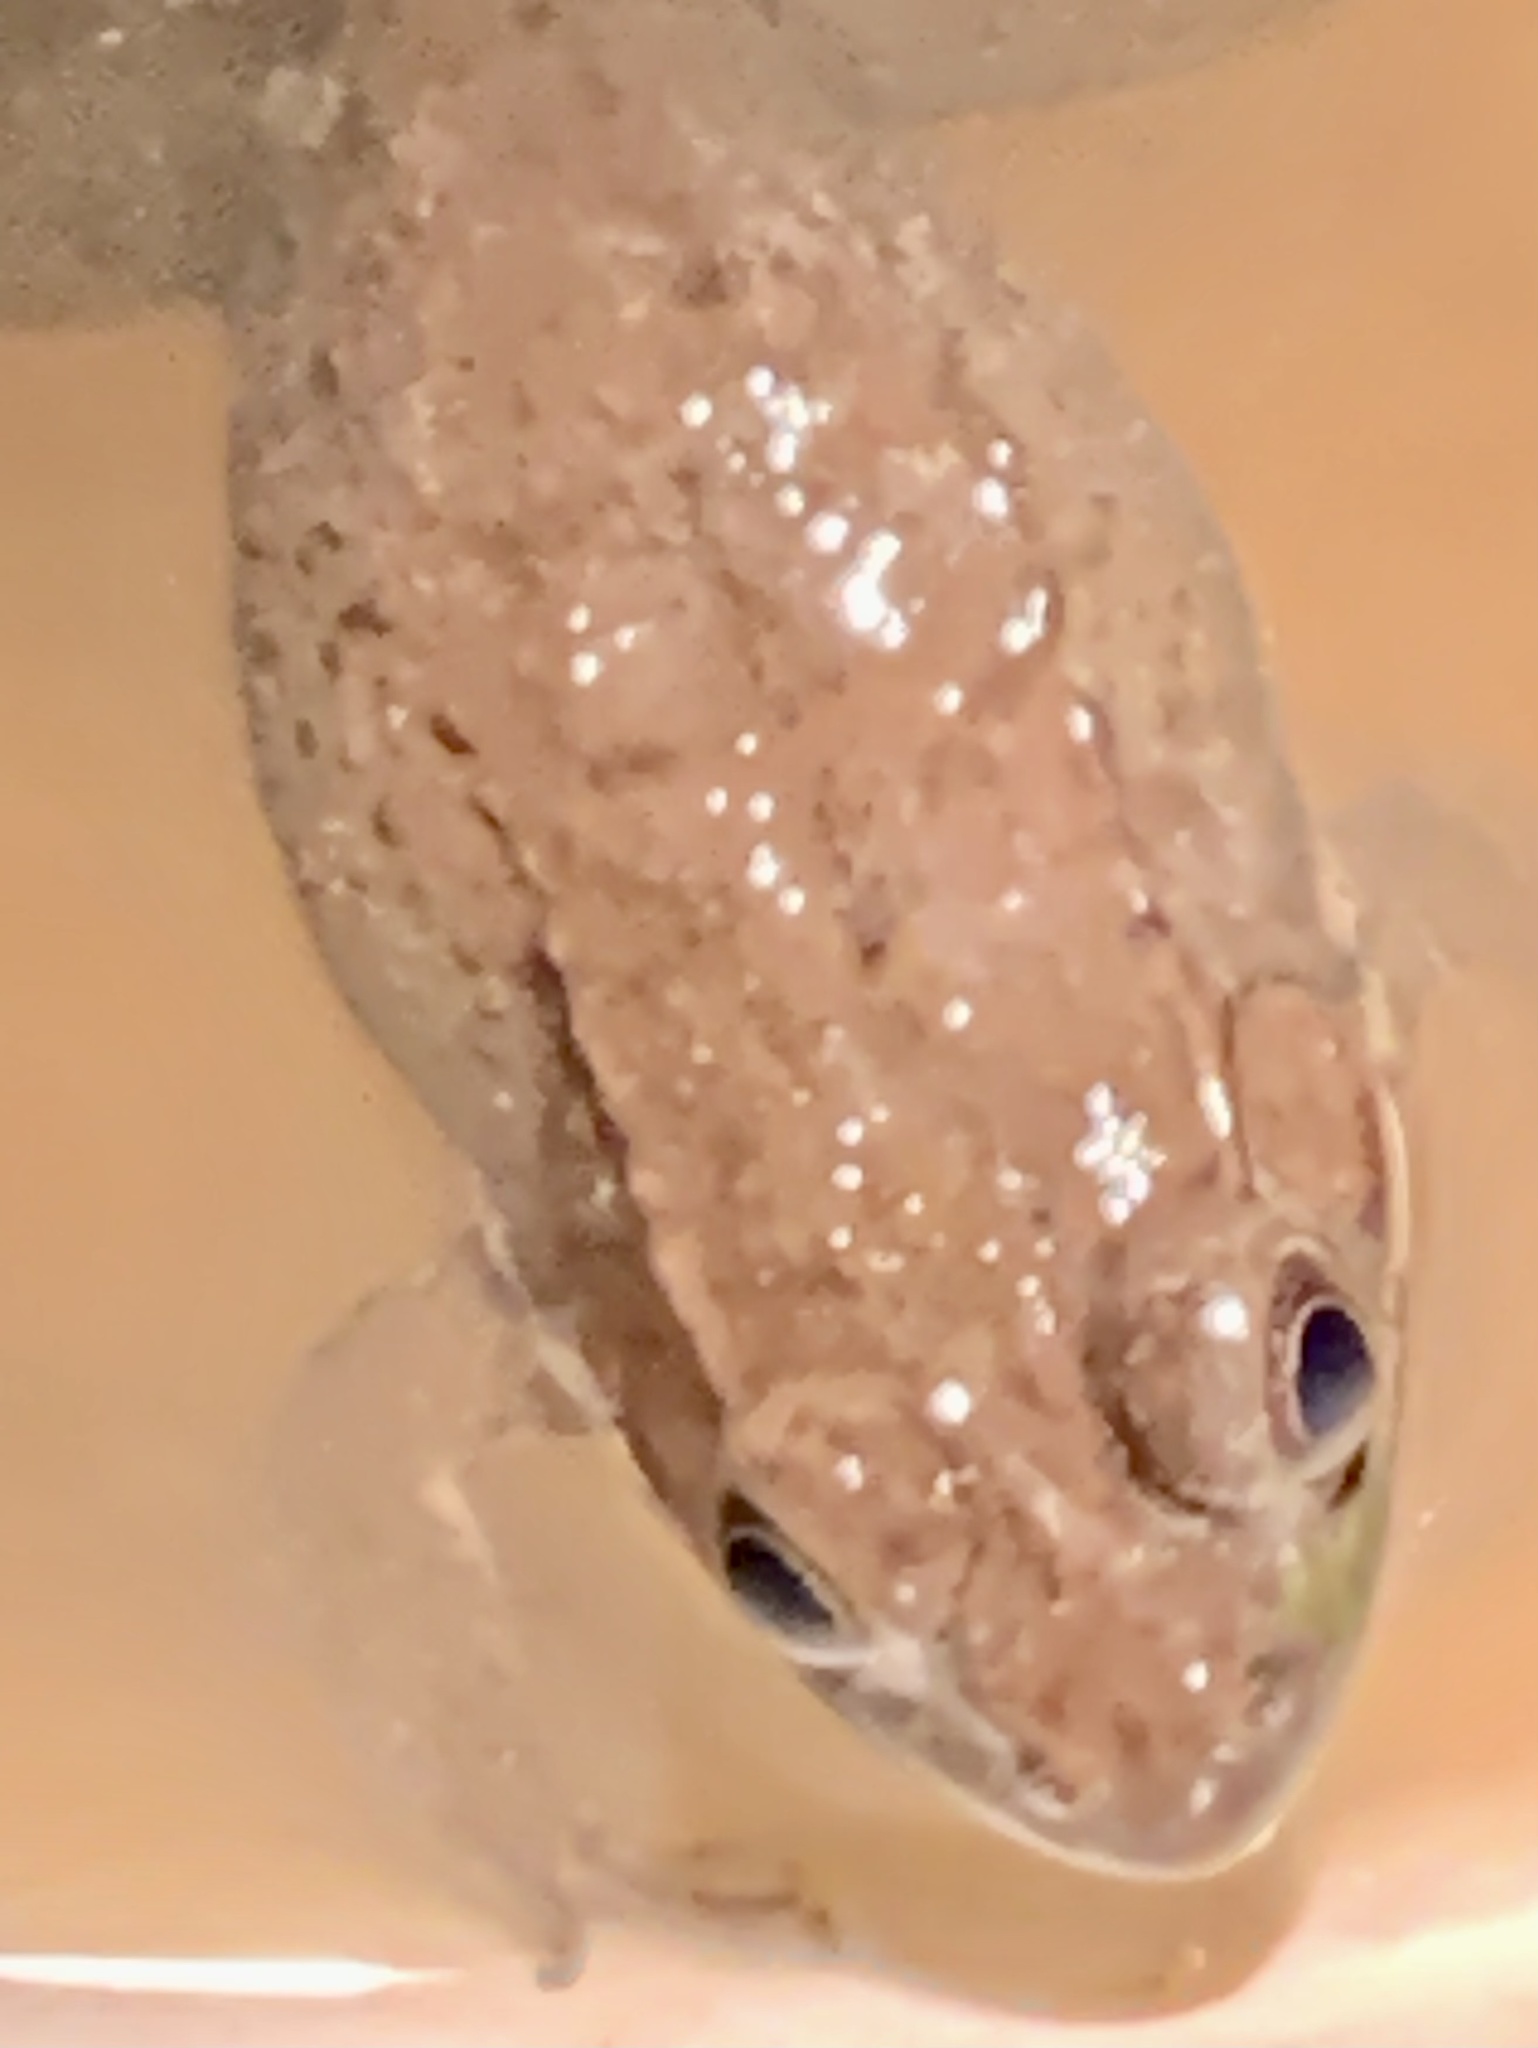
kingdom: Animalia
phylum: Chordata
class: Amphibia
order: Anura
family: Ranidae
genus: Lithobates
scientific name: Lithobates clamitans
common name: Green frog
